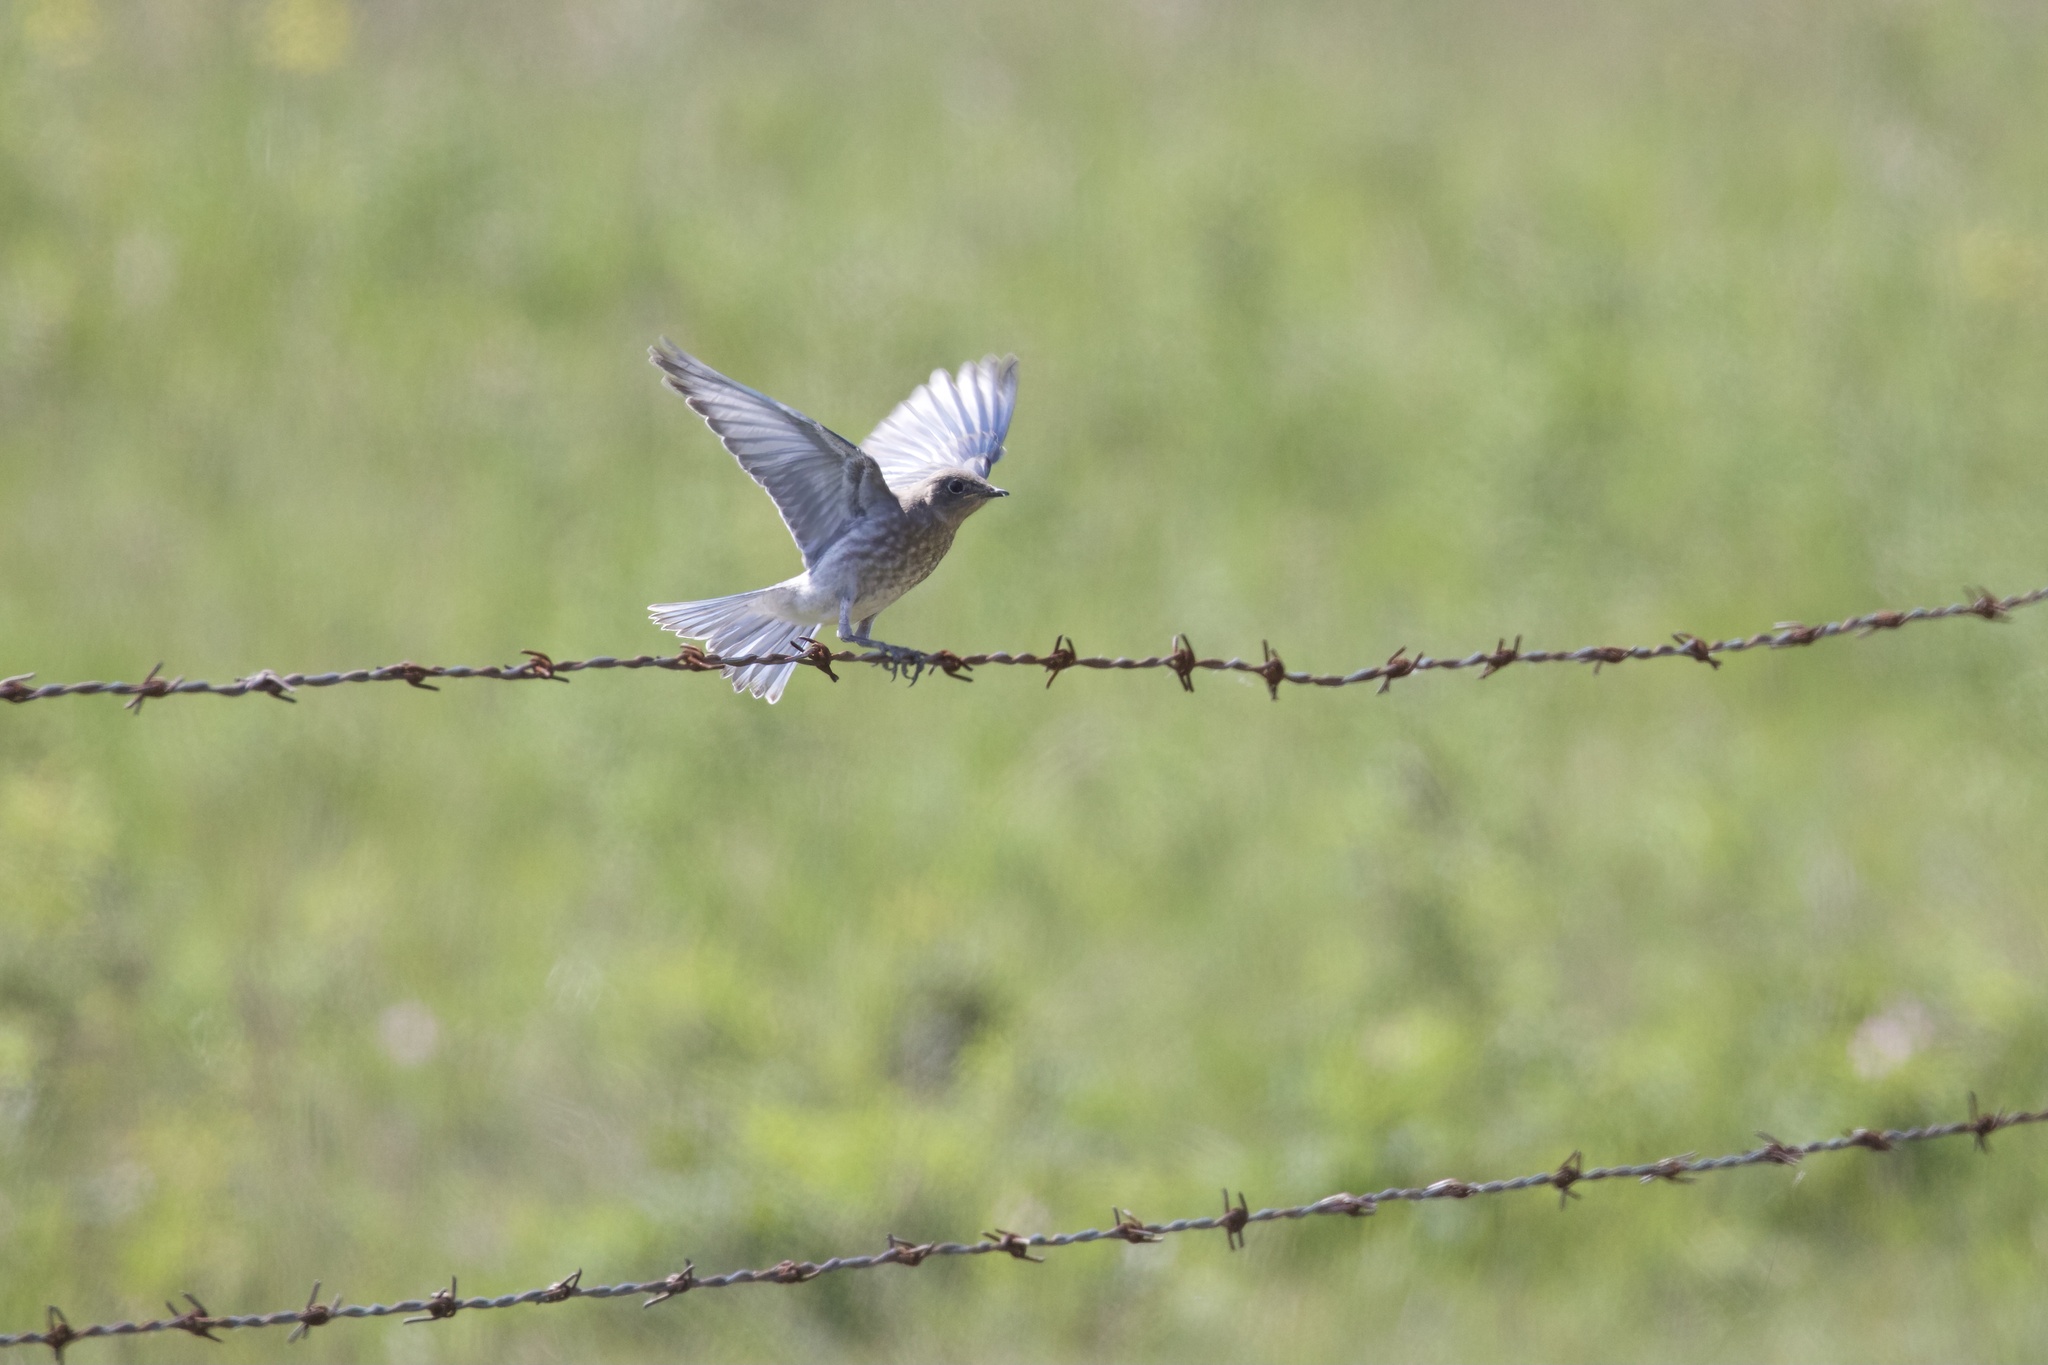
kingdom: Animalia
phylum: Chordata
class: Aves
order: Passeriformes
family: Turdidae
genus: Sialia
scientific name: Sialia currucoides
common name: Mountain bluebird
